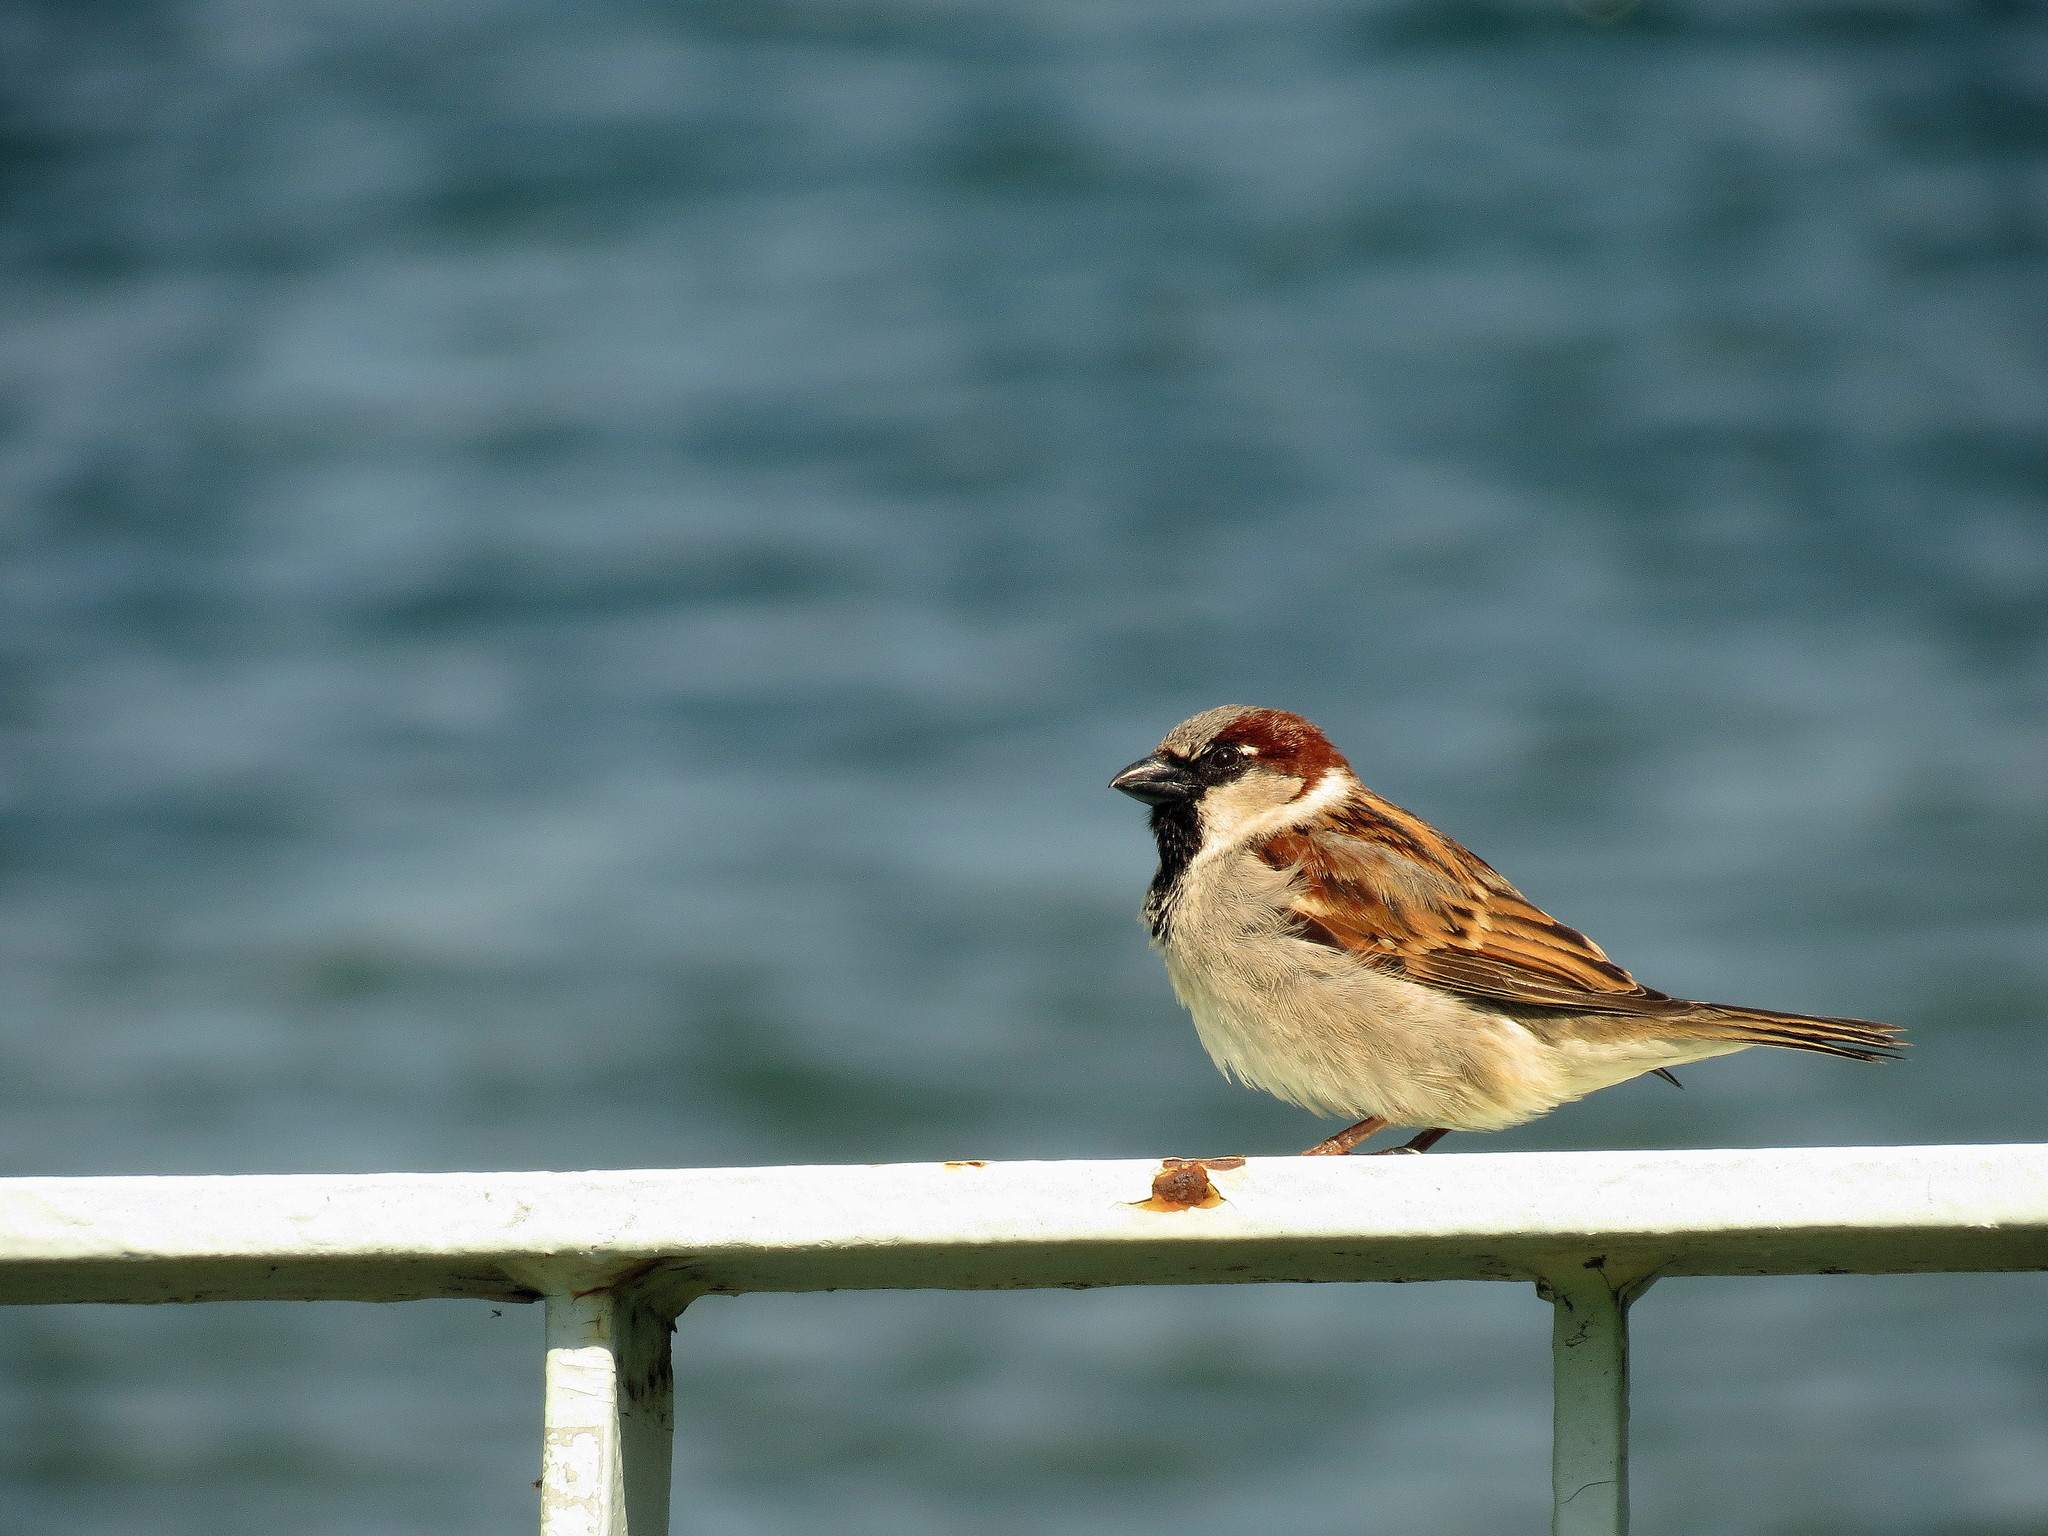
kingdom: Animalia
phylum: Chordata
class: Aves
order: Passeriformes
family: Passeridae
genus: Passer
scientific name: Passer domesticus
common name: House sparrow
